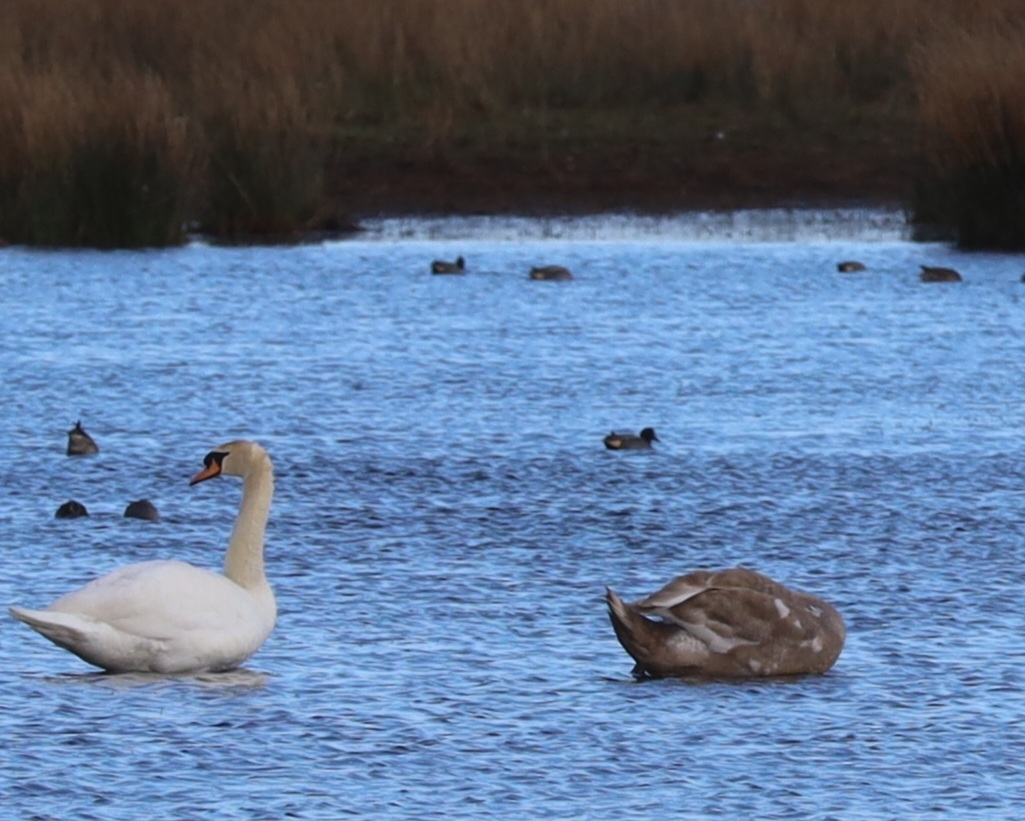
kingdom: Animalia
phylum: Chordata
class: Aves
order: Anseriformes
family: Anatidae
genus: Cygnus
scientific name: Cygnus olor
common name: Mute swan
